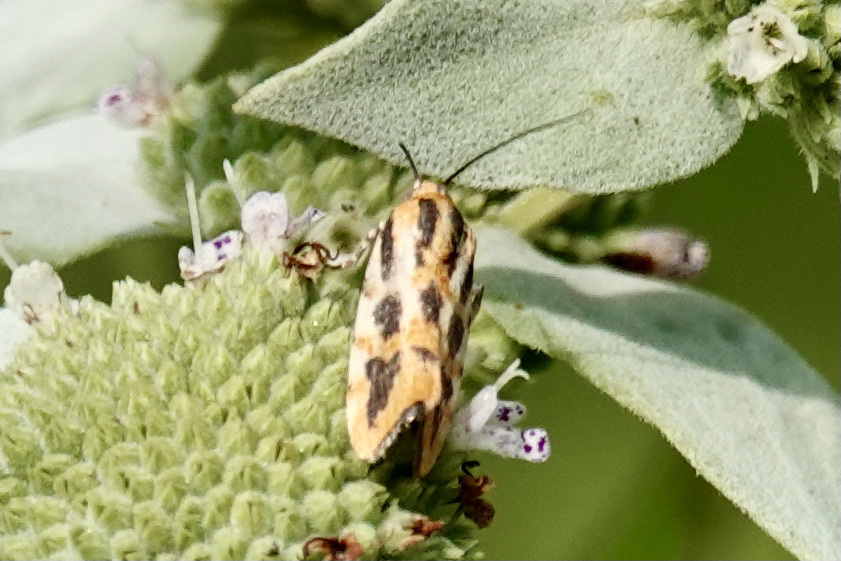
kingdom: Animalia
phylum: Arthropoda
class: Insecta
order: Lepidoptera
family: Noctuidae
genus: Acontia
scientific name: Acontia leo
